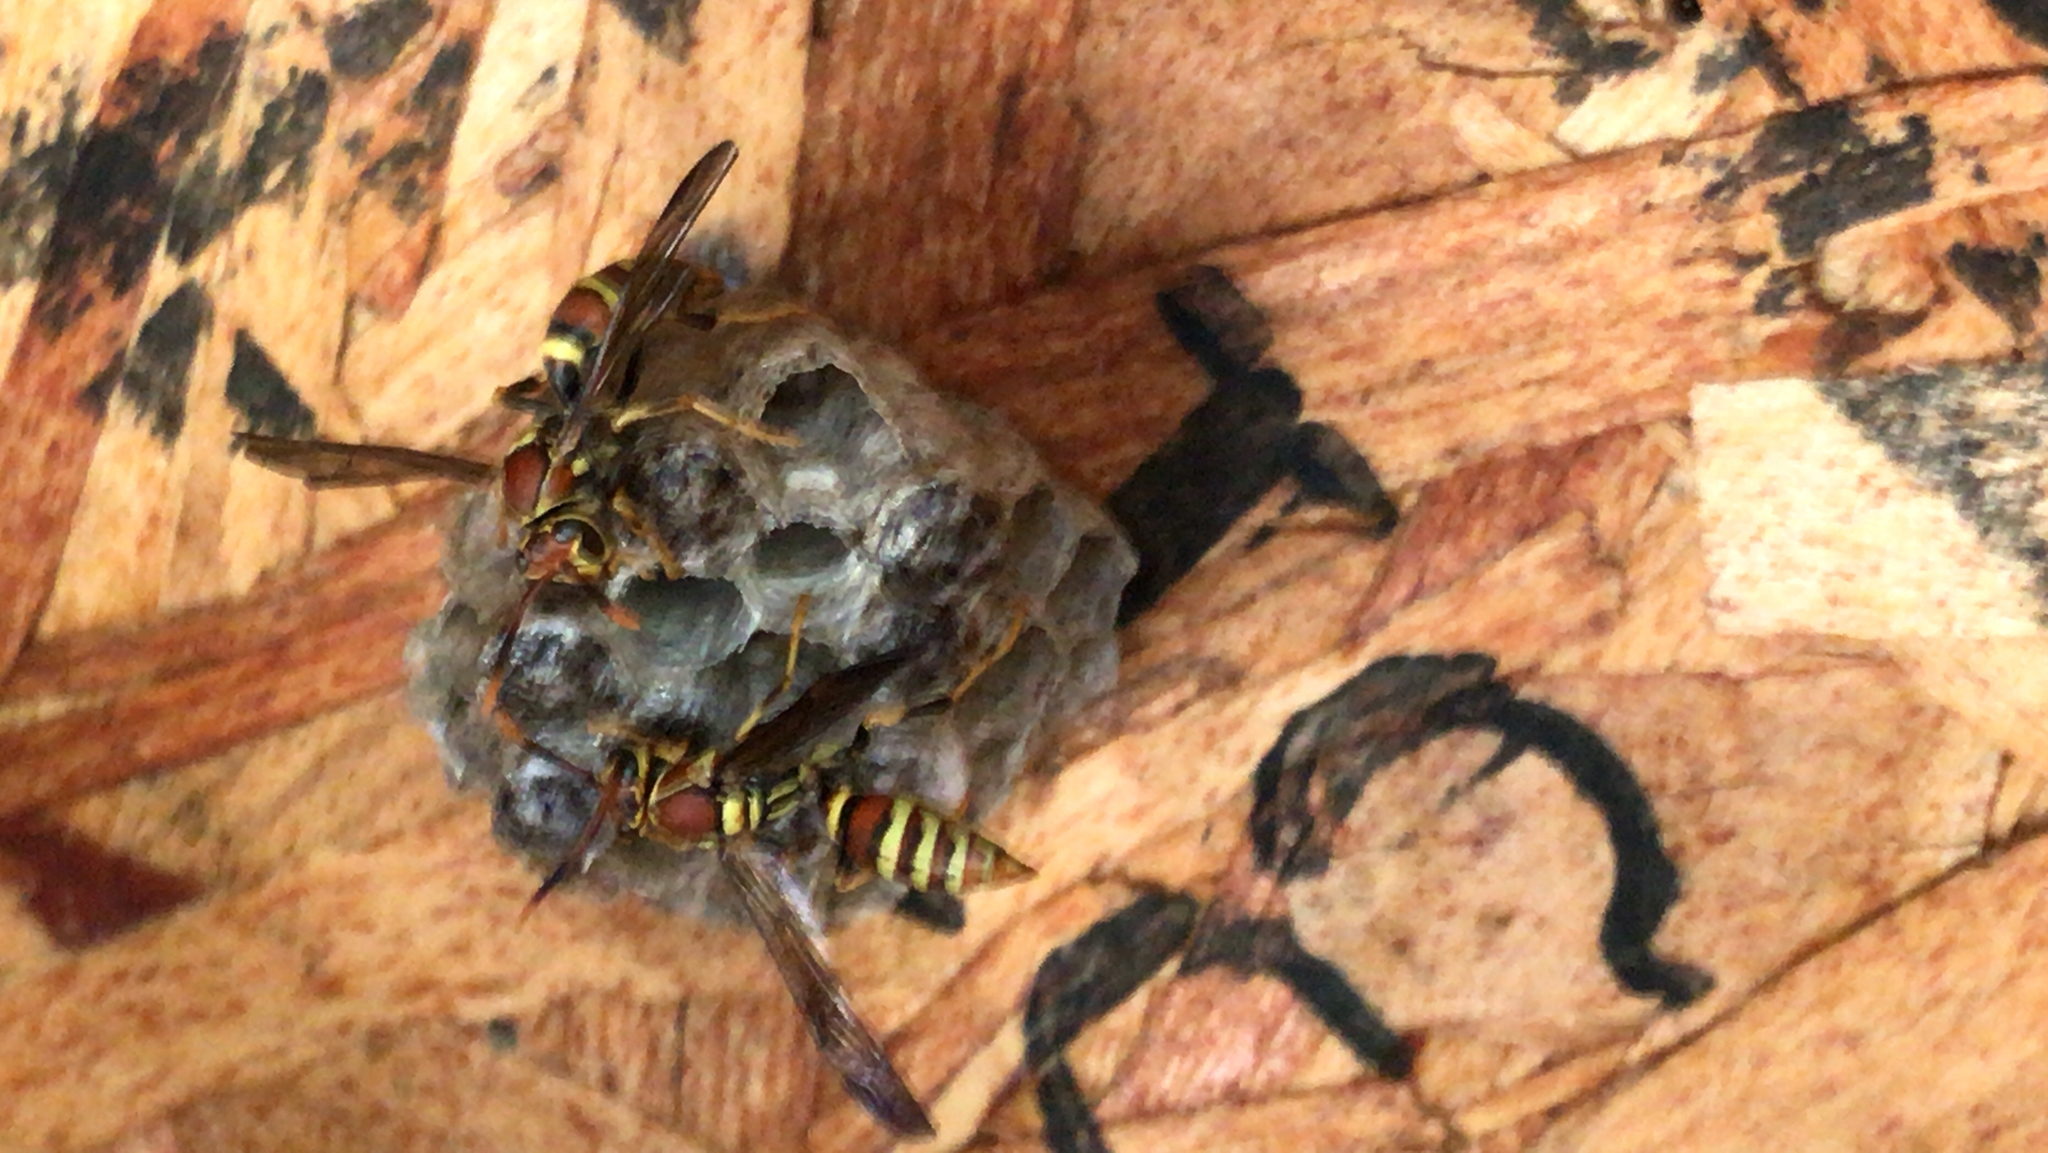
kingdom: Animalia
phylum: Arthropoda
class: Insecta
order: Hymenoptera
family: Eumenidae
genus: Polistes
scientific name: Polistes exclamans
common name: Paper wasp
